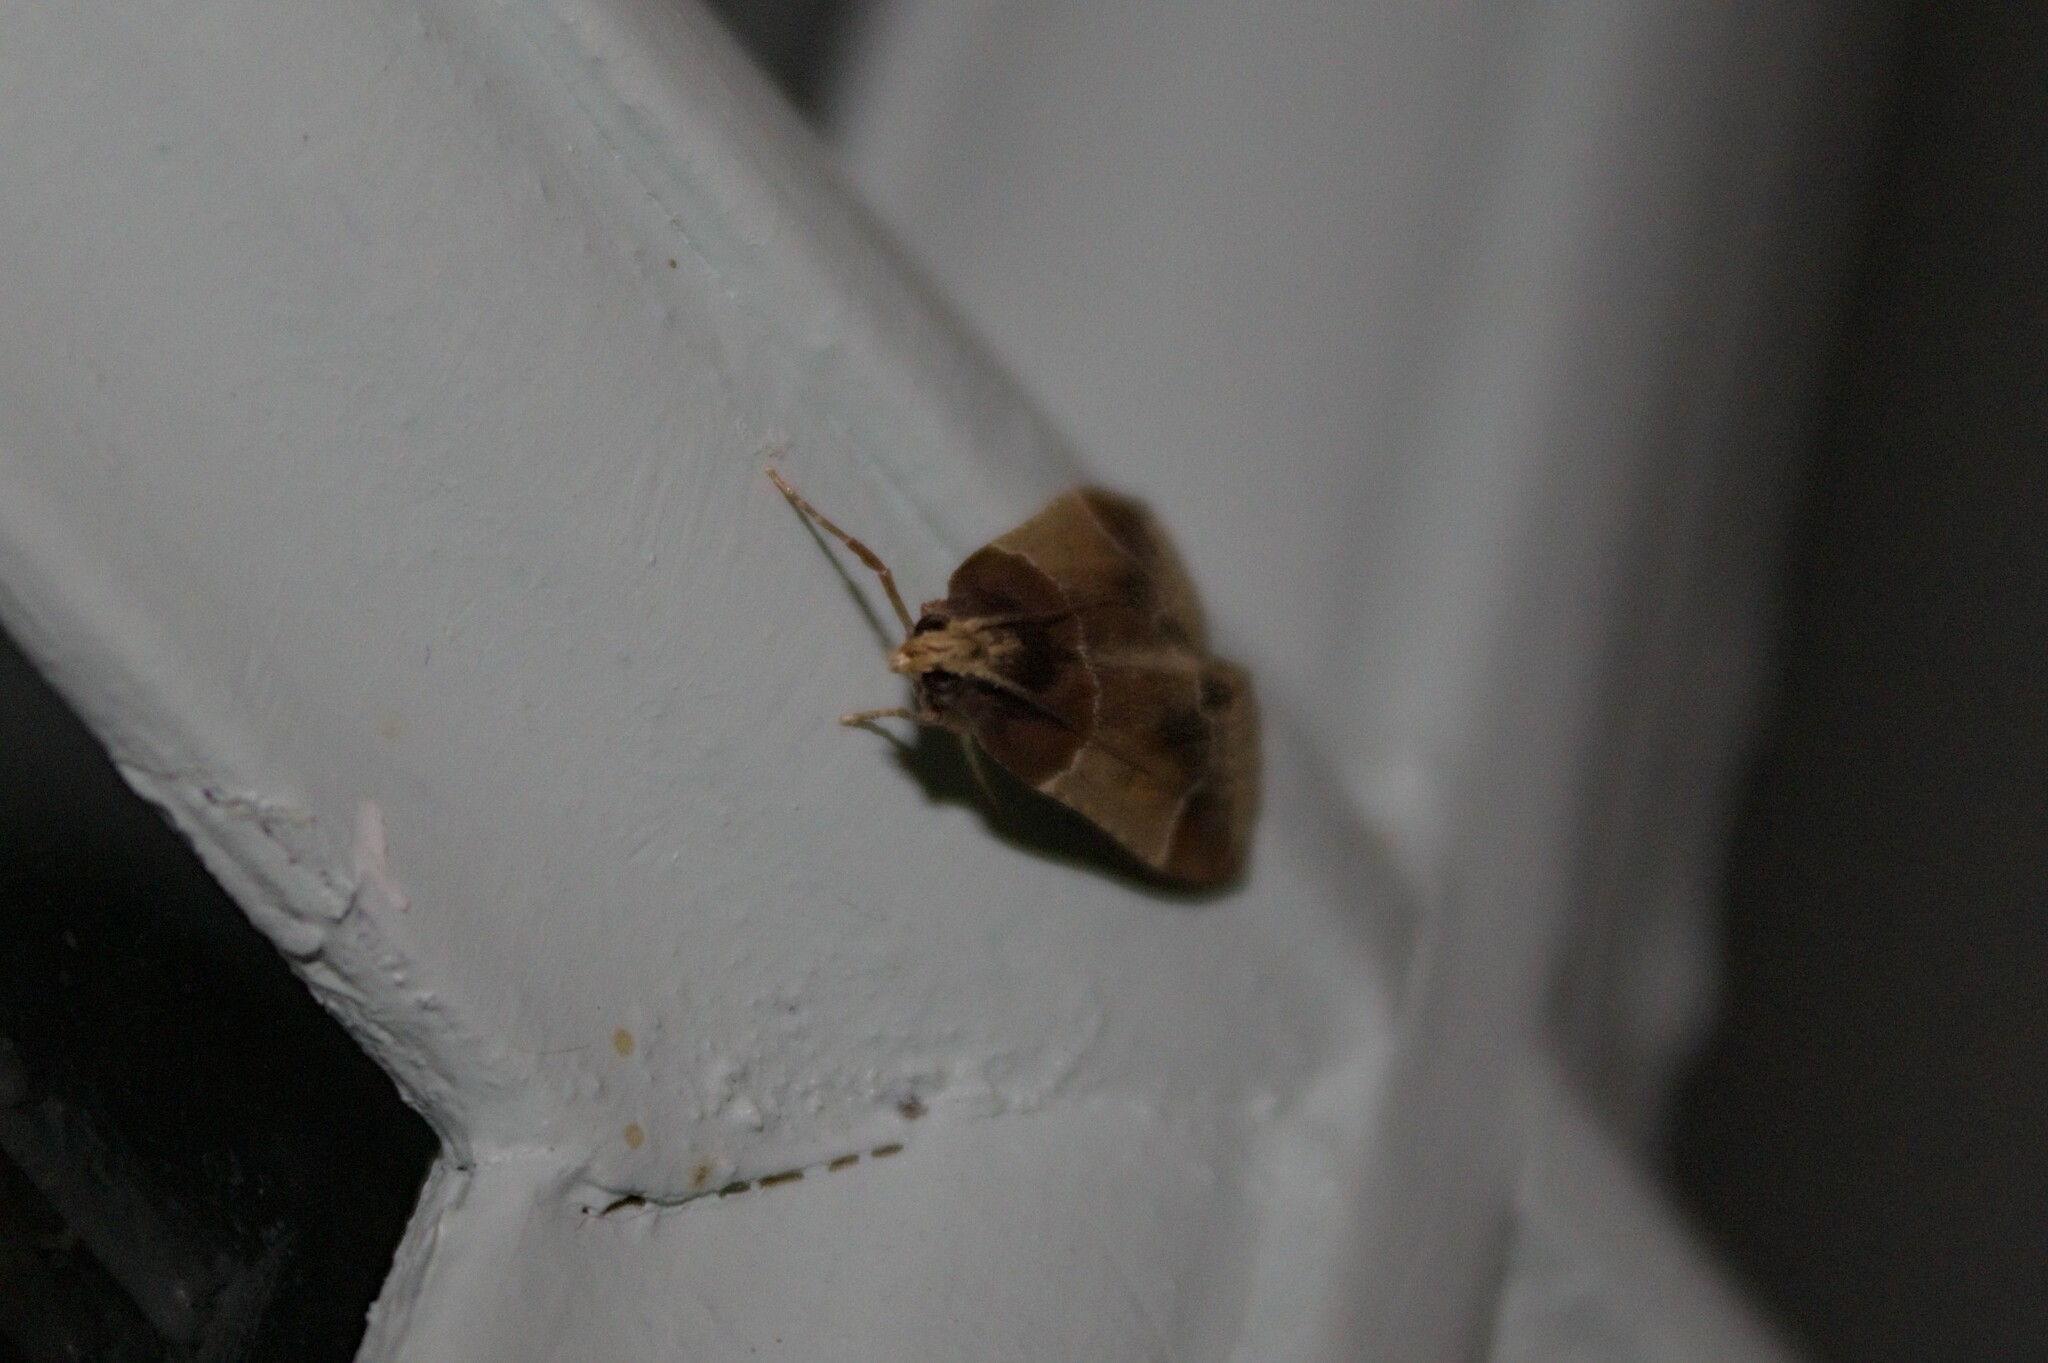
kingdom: Animalia
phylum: Arthropoda
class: Insecta
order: Lepidoptera
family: Pyralidae
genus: Pyralis
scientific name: Pyralis farinalis
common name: Meal moth
